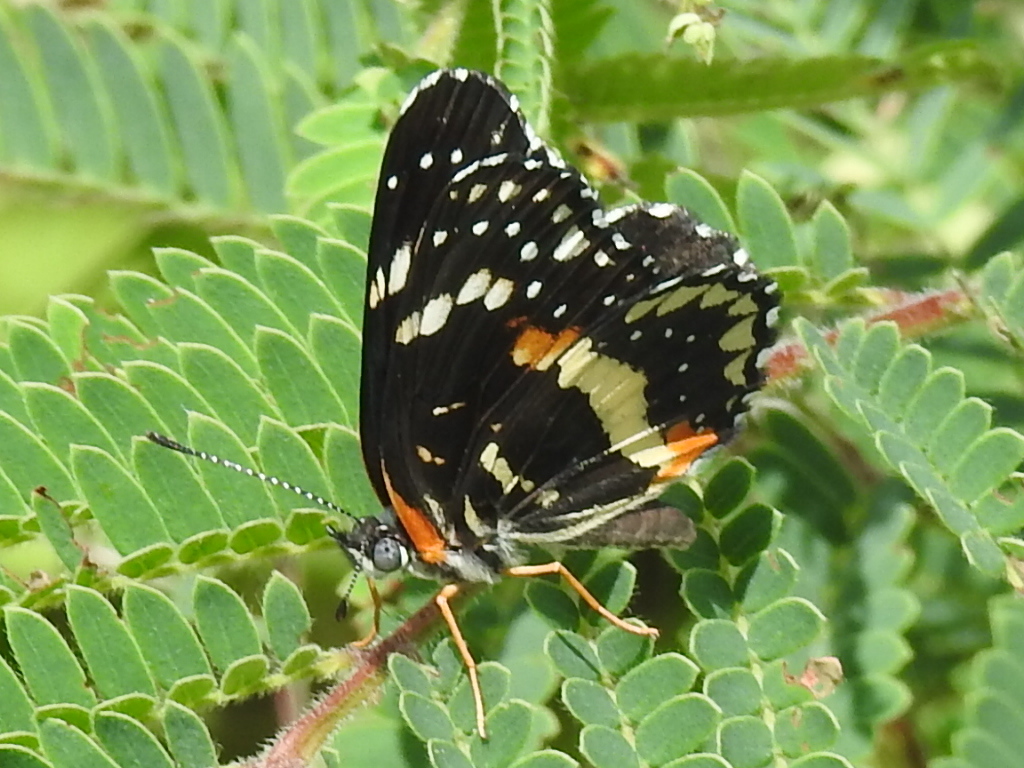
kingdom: Animalia
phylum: Arthropoda
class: Insecta
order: Lepidoptera
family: Nymphalidae
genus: Chlosyne
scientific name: Chlosyne lacinia
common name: Bordered patch
